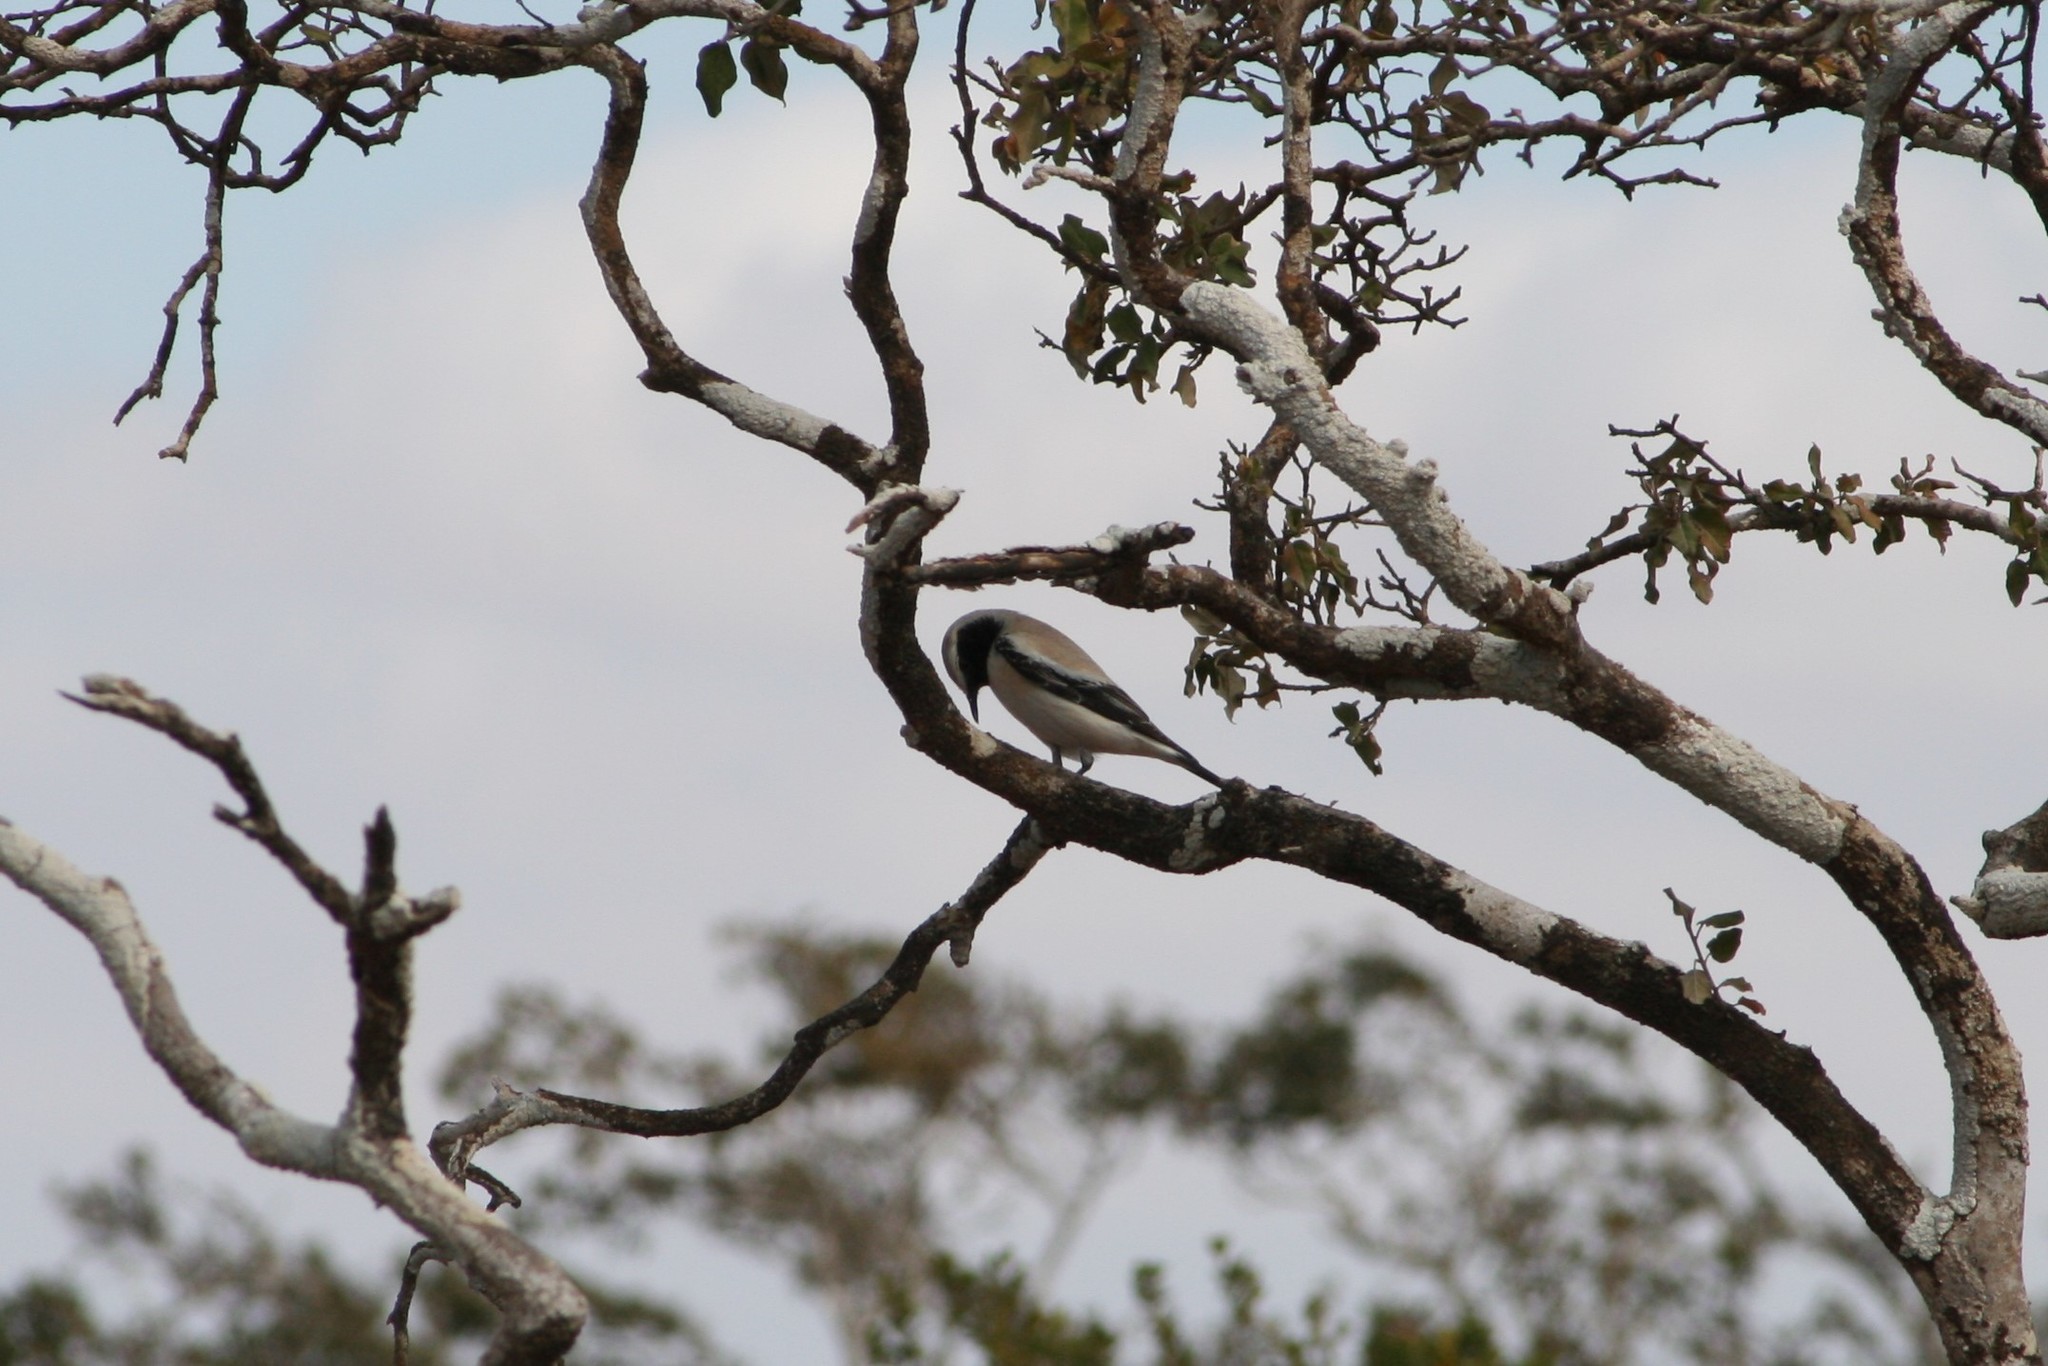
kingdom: Animalia
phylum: Chordata
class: Aves
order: Passeriformes
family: Muscicapidae
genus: Oenanthe
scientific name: Oenanthe deserti
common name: Desert wheatear
